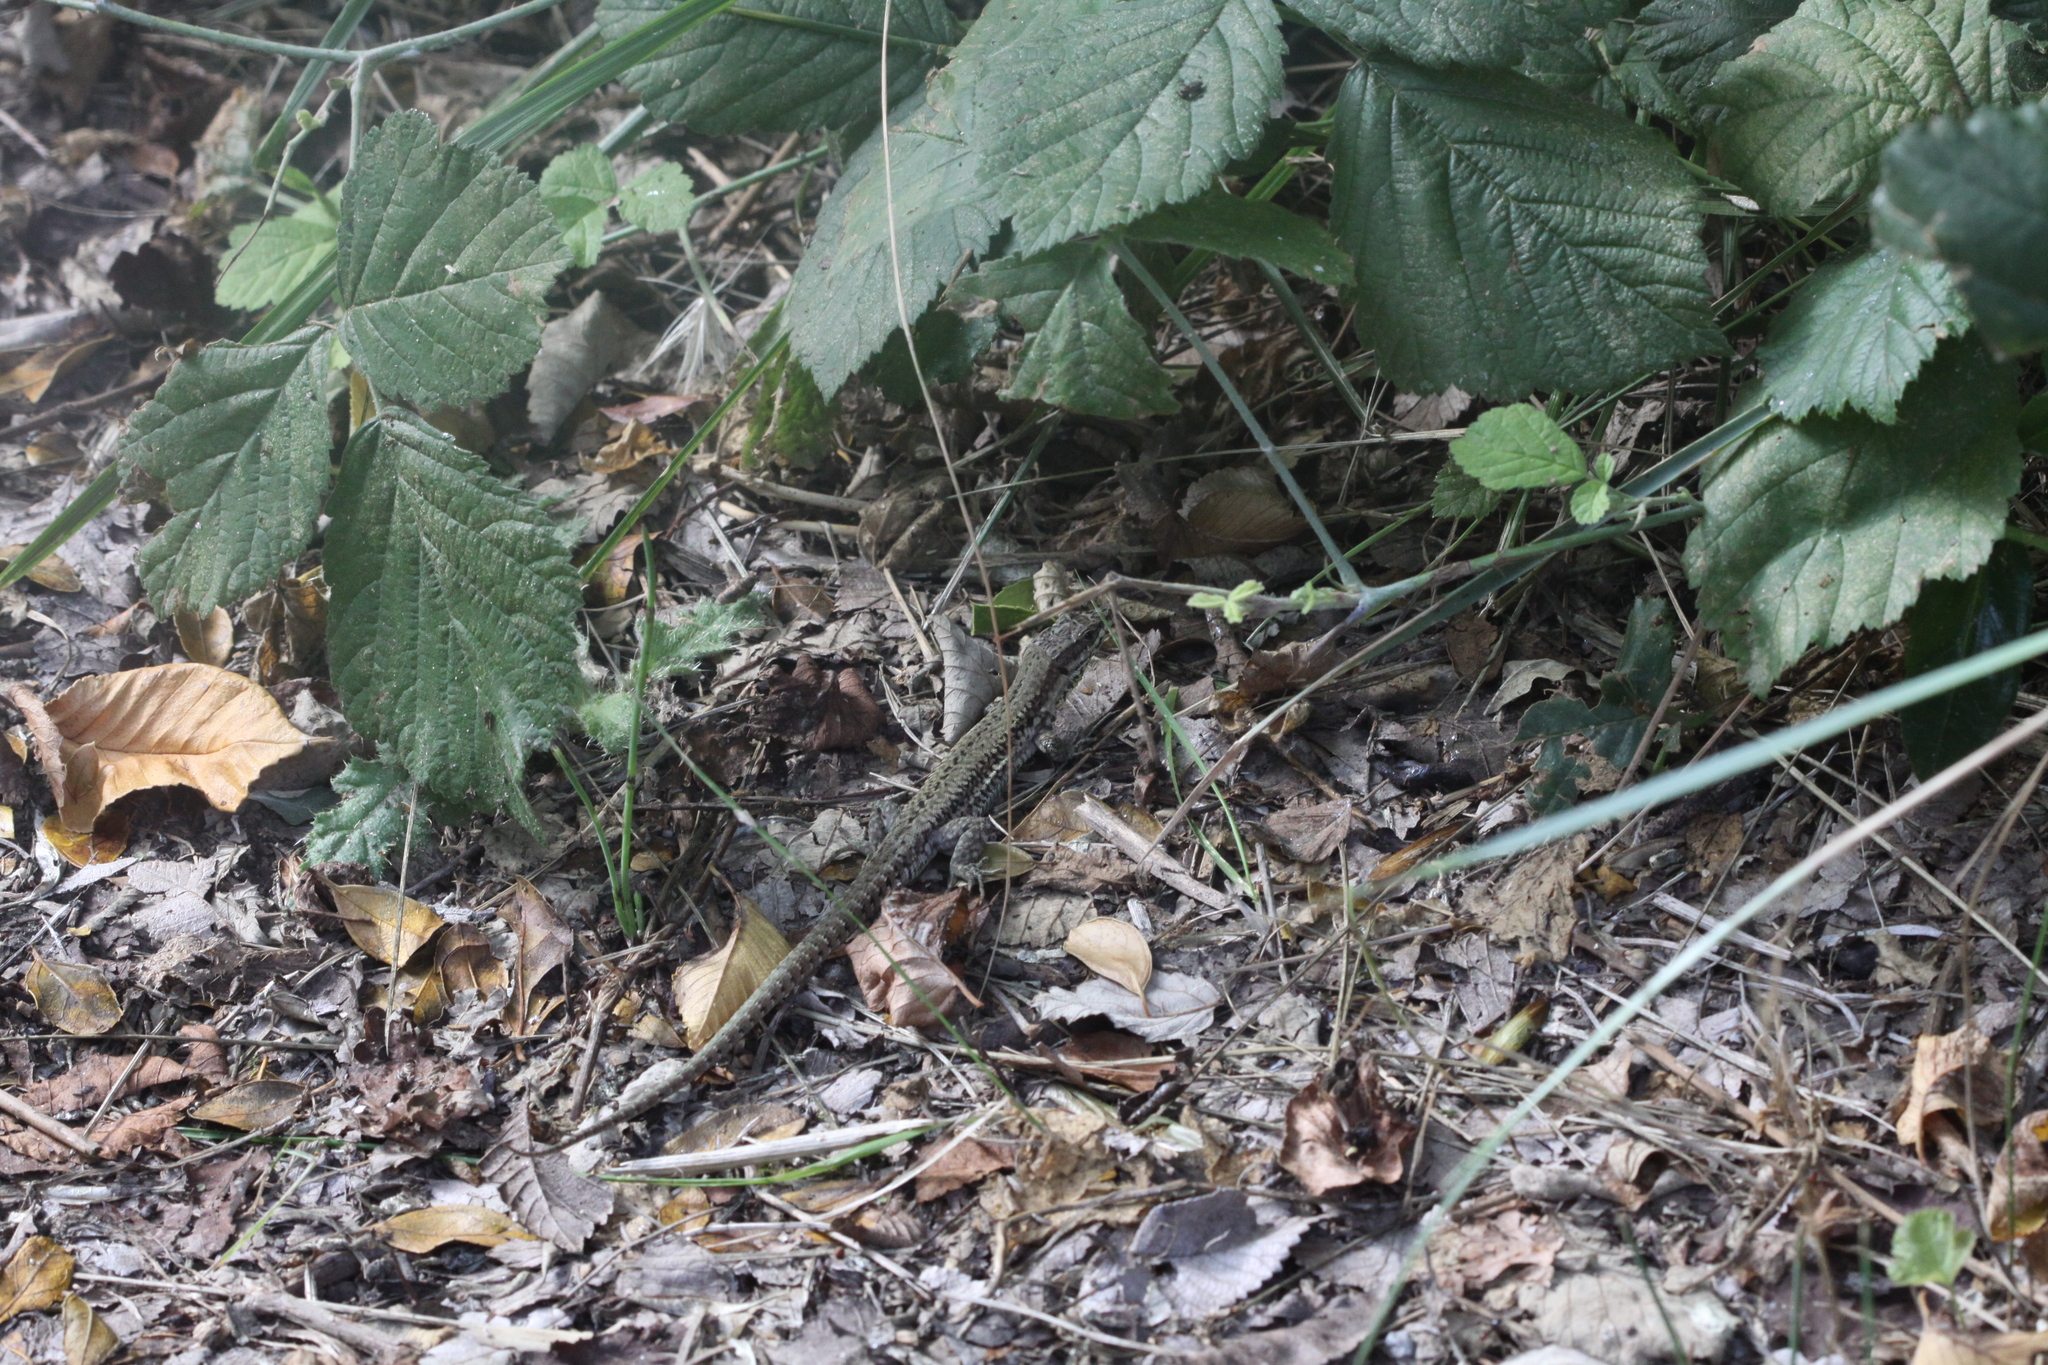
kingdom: Animalia
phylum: Chordata
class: Squamata
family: Lacertidae
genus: Podarcis
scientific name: Podarcis muralis
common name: Common wall lizard
